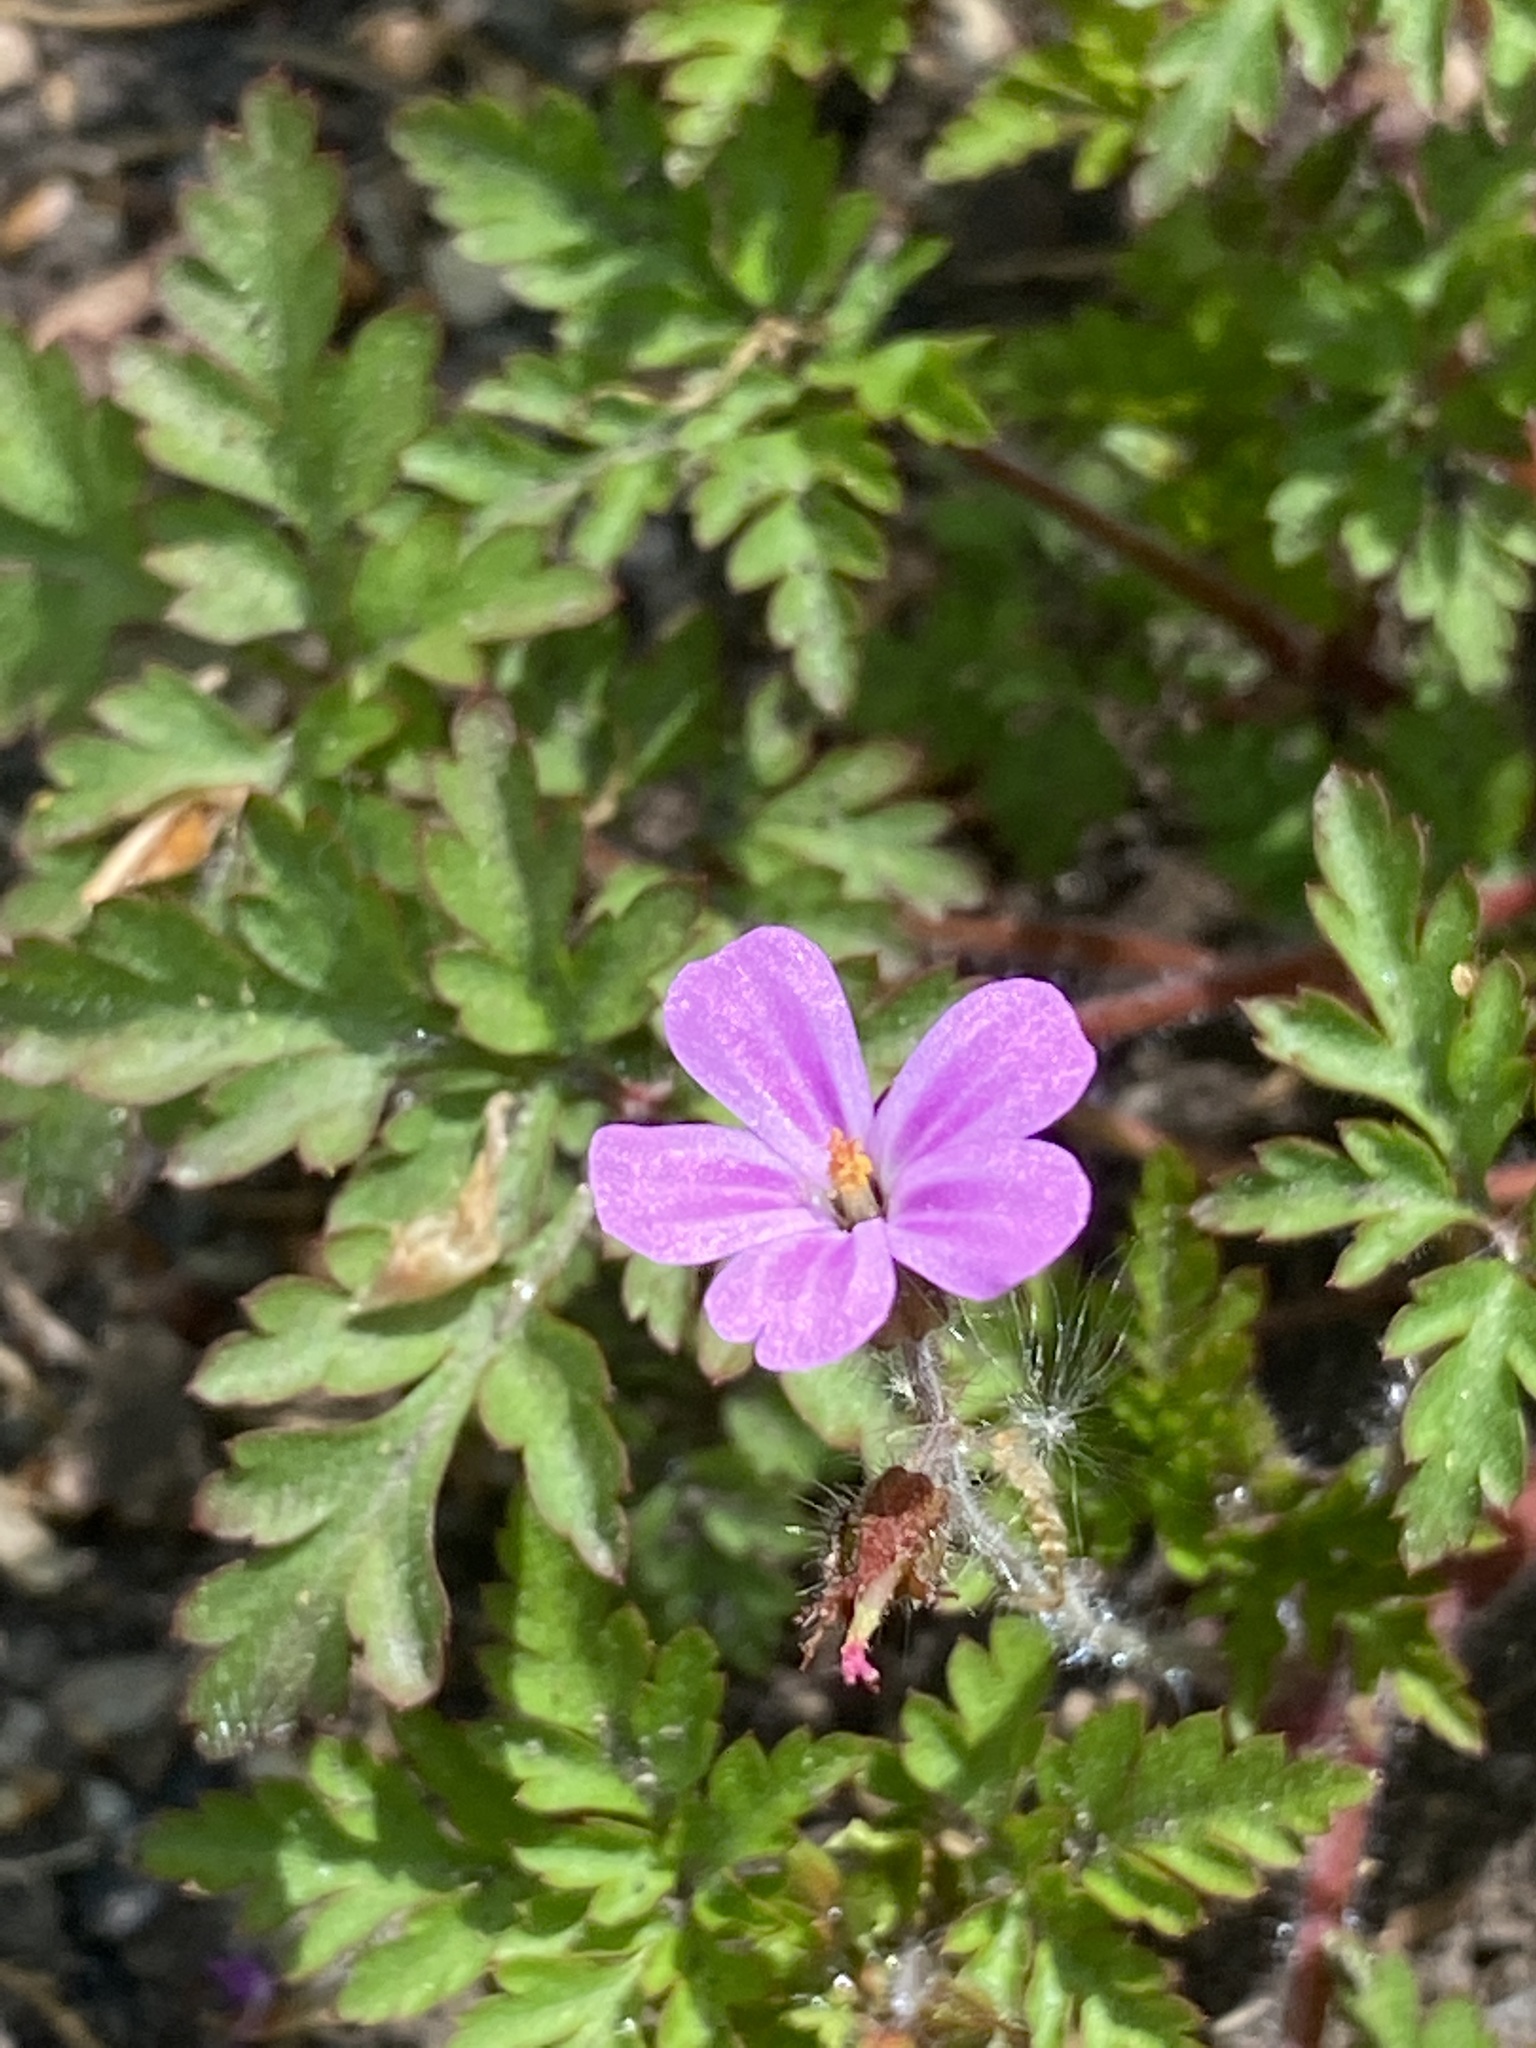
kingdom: Plantae
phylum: Tracheophyta
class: Magnoliopsida
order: Geraniales
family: Geraniaceae
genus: Geranium
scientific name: Geranium robertianum
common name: Herb-robert
